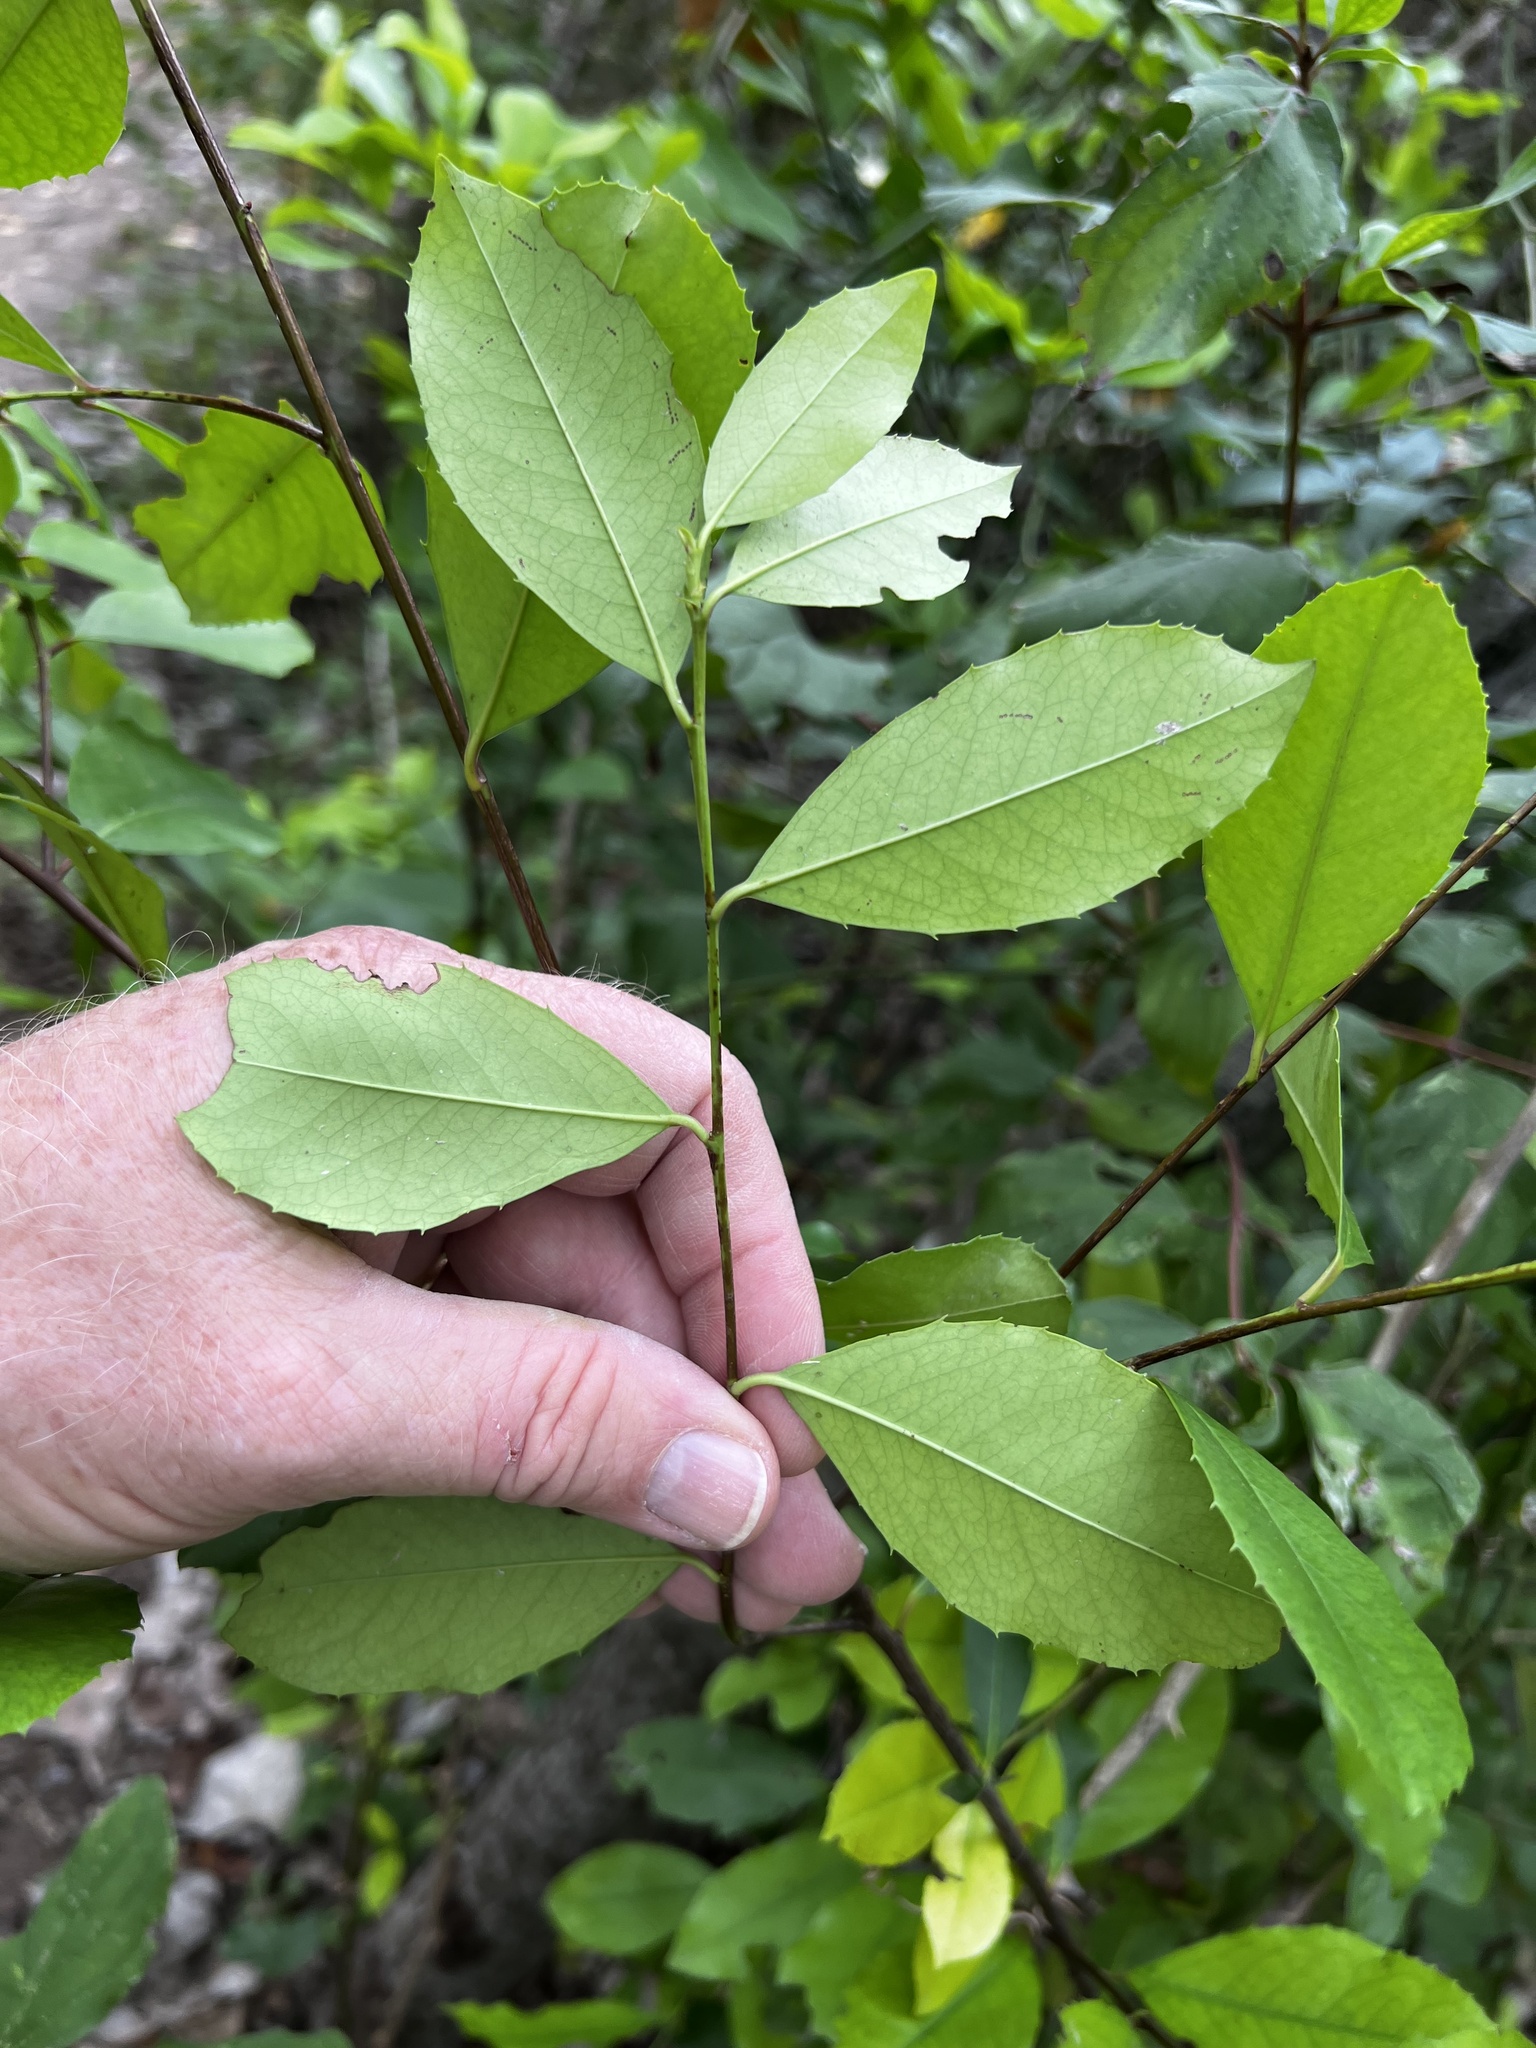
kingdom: Plantae
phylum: Tracheophyta
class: Magnoliopsida
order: Rosales
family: Rosaceae
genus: Prunus
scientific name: Prunus caroliniana
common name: Carolina laurel cherry
